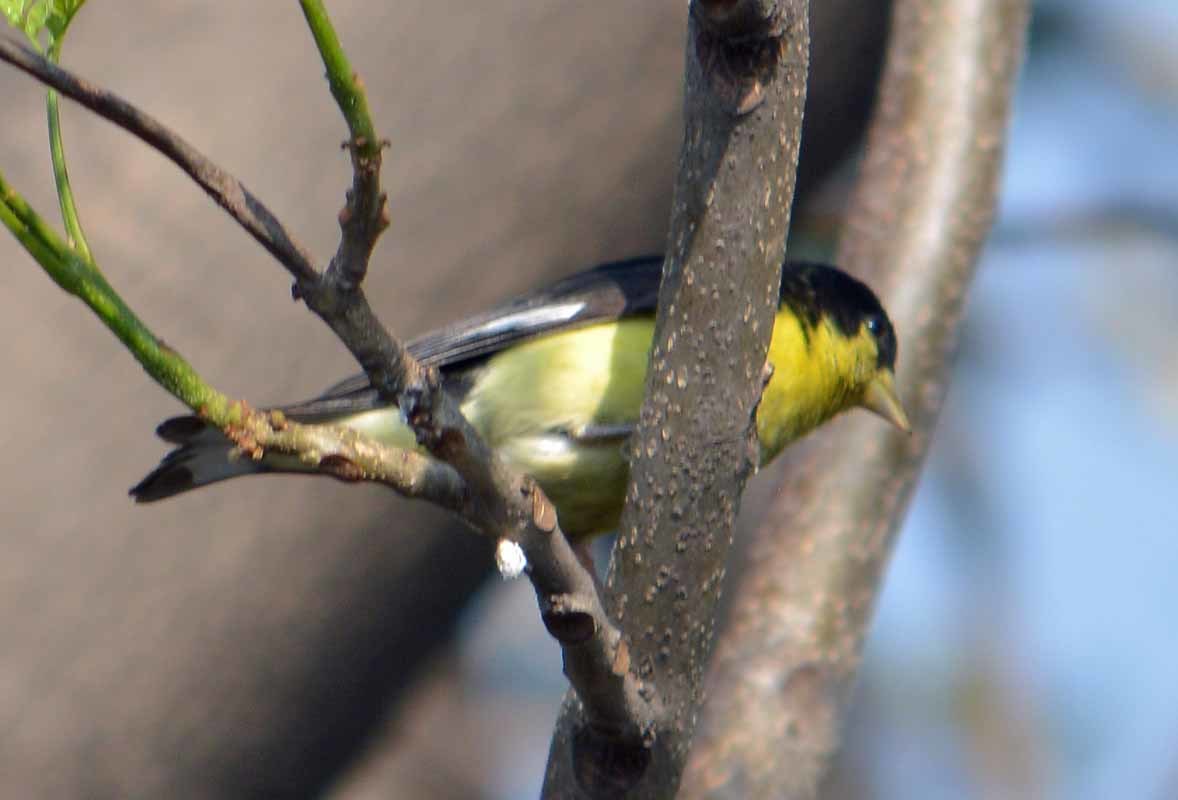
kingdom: Animalia
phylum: Chordata
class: Aves
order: Passeriformes
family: Fringillidae
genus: Spinus
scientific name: Spinus psaltria
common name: Lesser goldfinch
